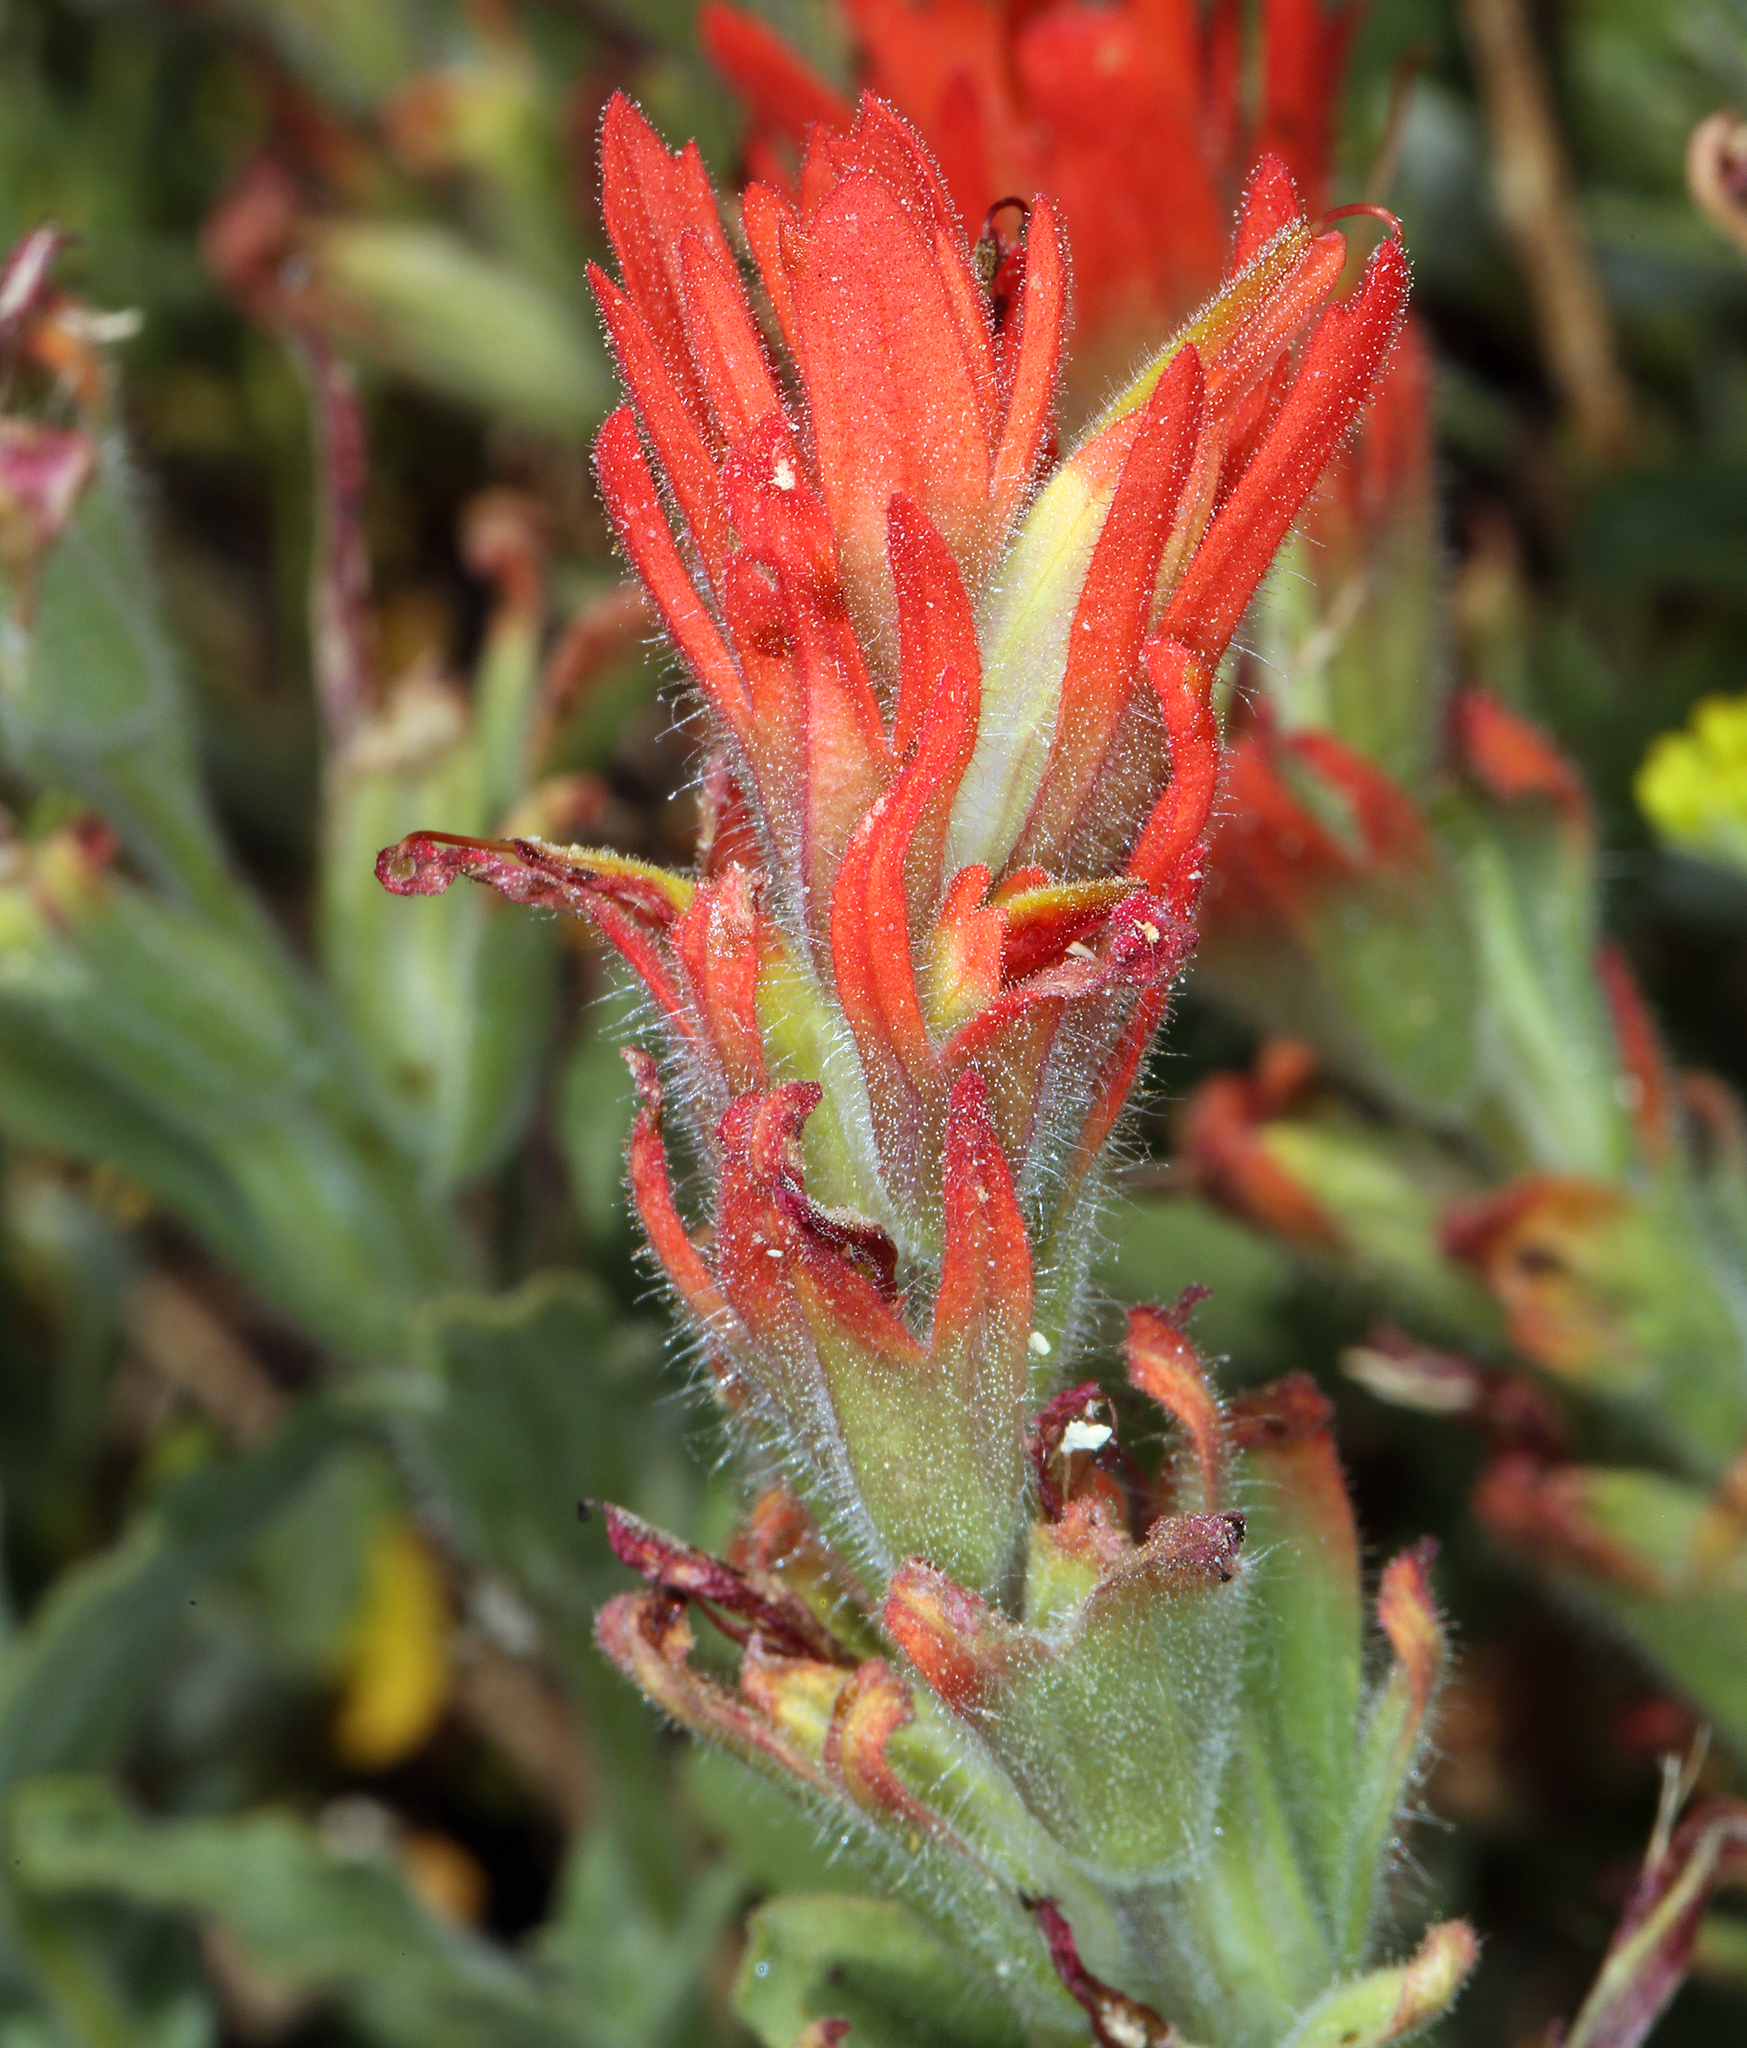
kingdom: Plantae
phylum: Tracheophyta
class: Magnoliopsida
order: Lamiales
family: Orobanchaceae
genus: Castilleja
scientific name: Castilleja applegatei
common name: Wavy-leaf paintbrush
